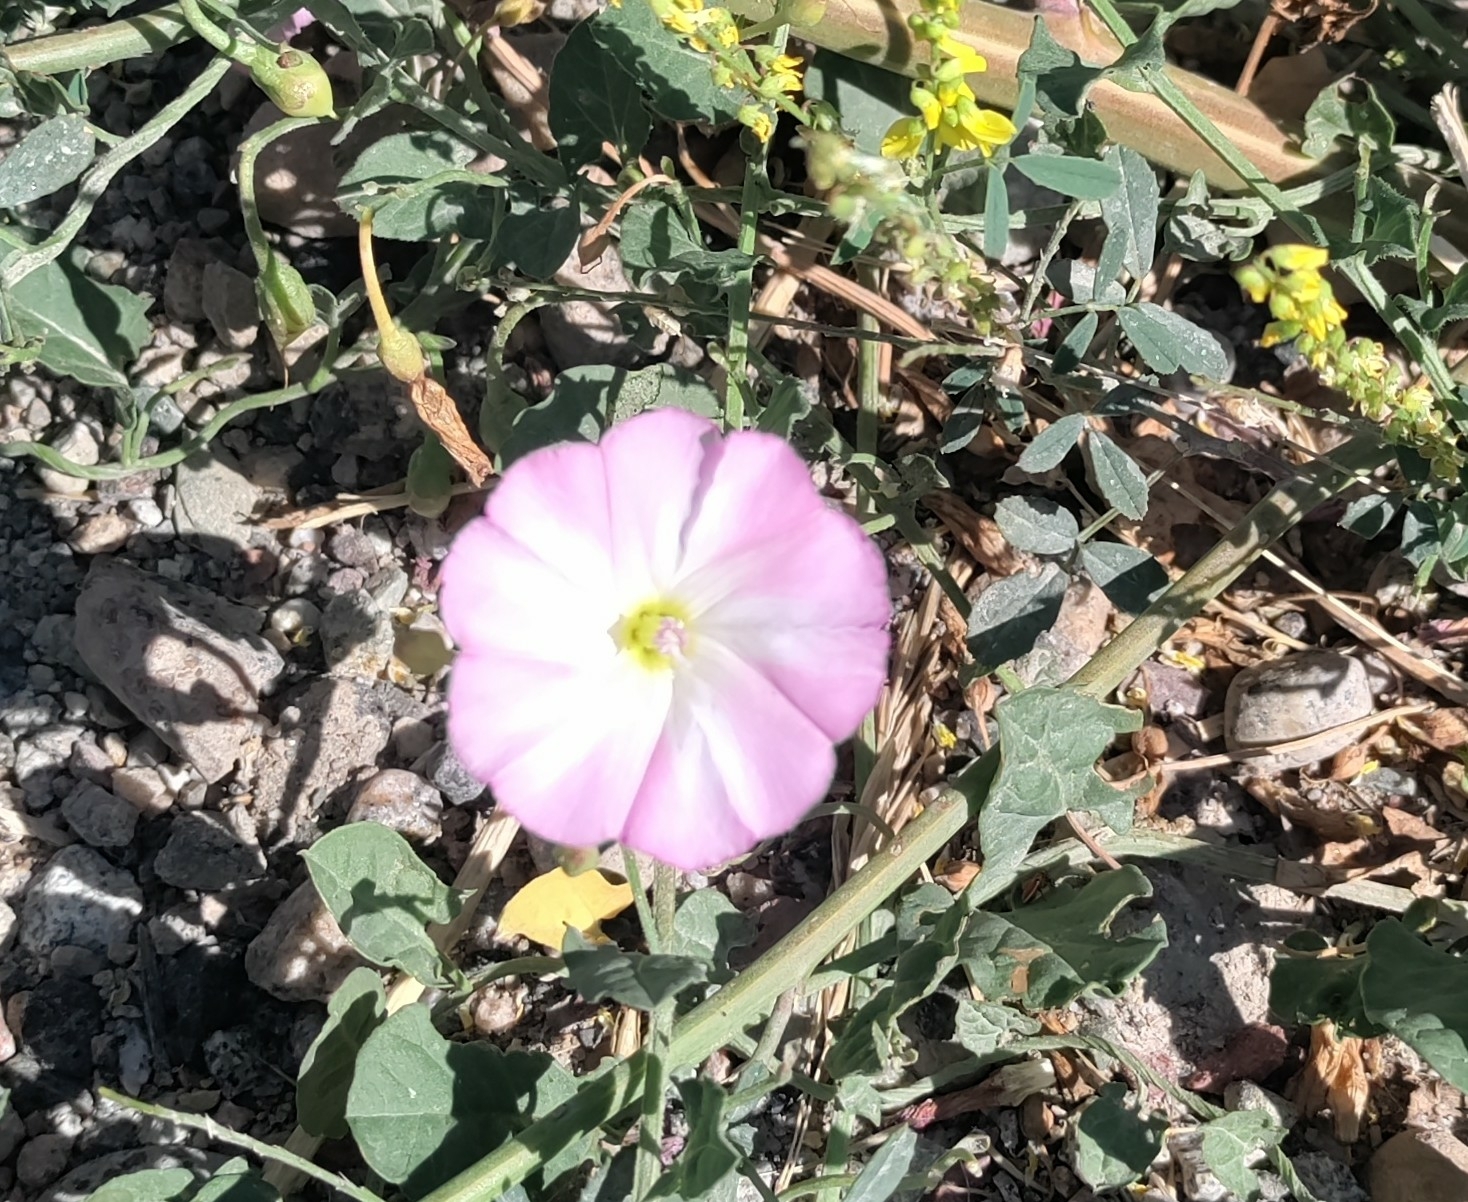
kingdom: Plantae
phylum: Tracheophyta
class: Magnoliopsida
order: Solanales
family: Convolvulaceae
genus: Convolvulus
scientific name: Convolvulus arvensis
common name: Field bindweed
